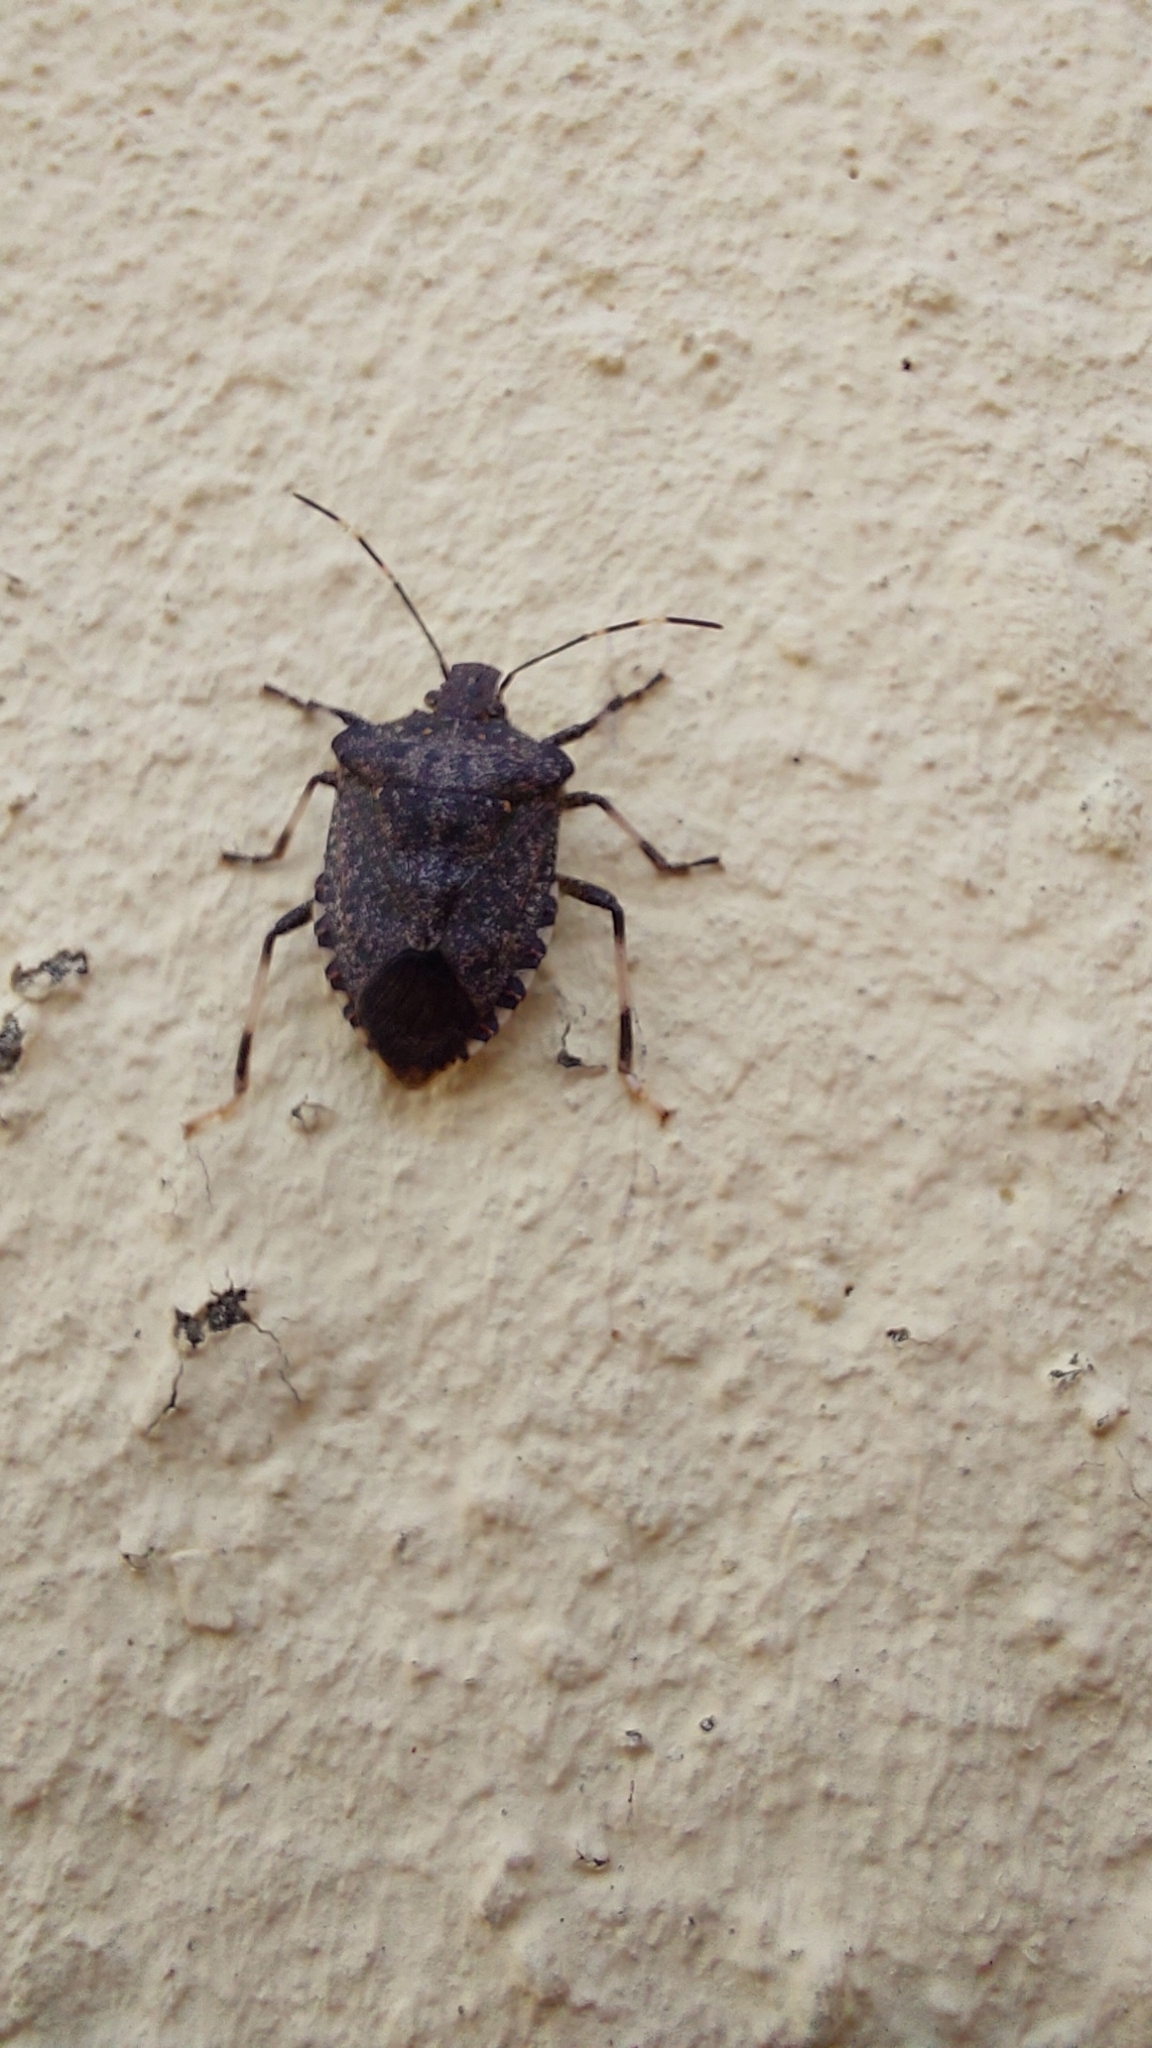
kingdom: Animalia
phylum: Arthropoda
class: Insecta
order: Hemiptera
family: Pentatomidae
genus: Halyomorpha
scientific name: Halyomorpha halys
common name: Brown marmorated stink bug
